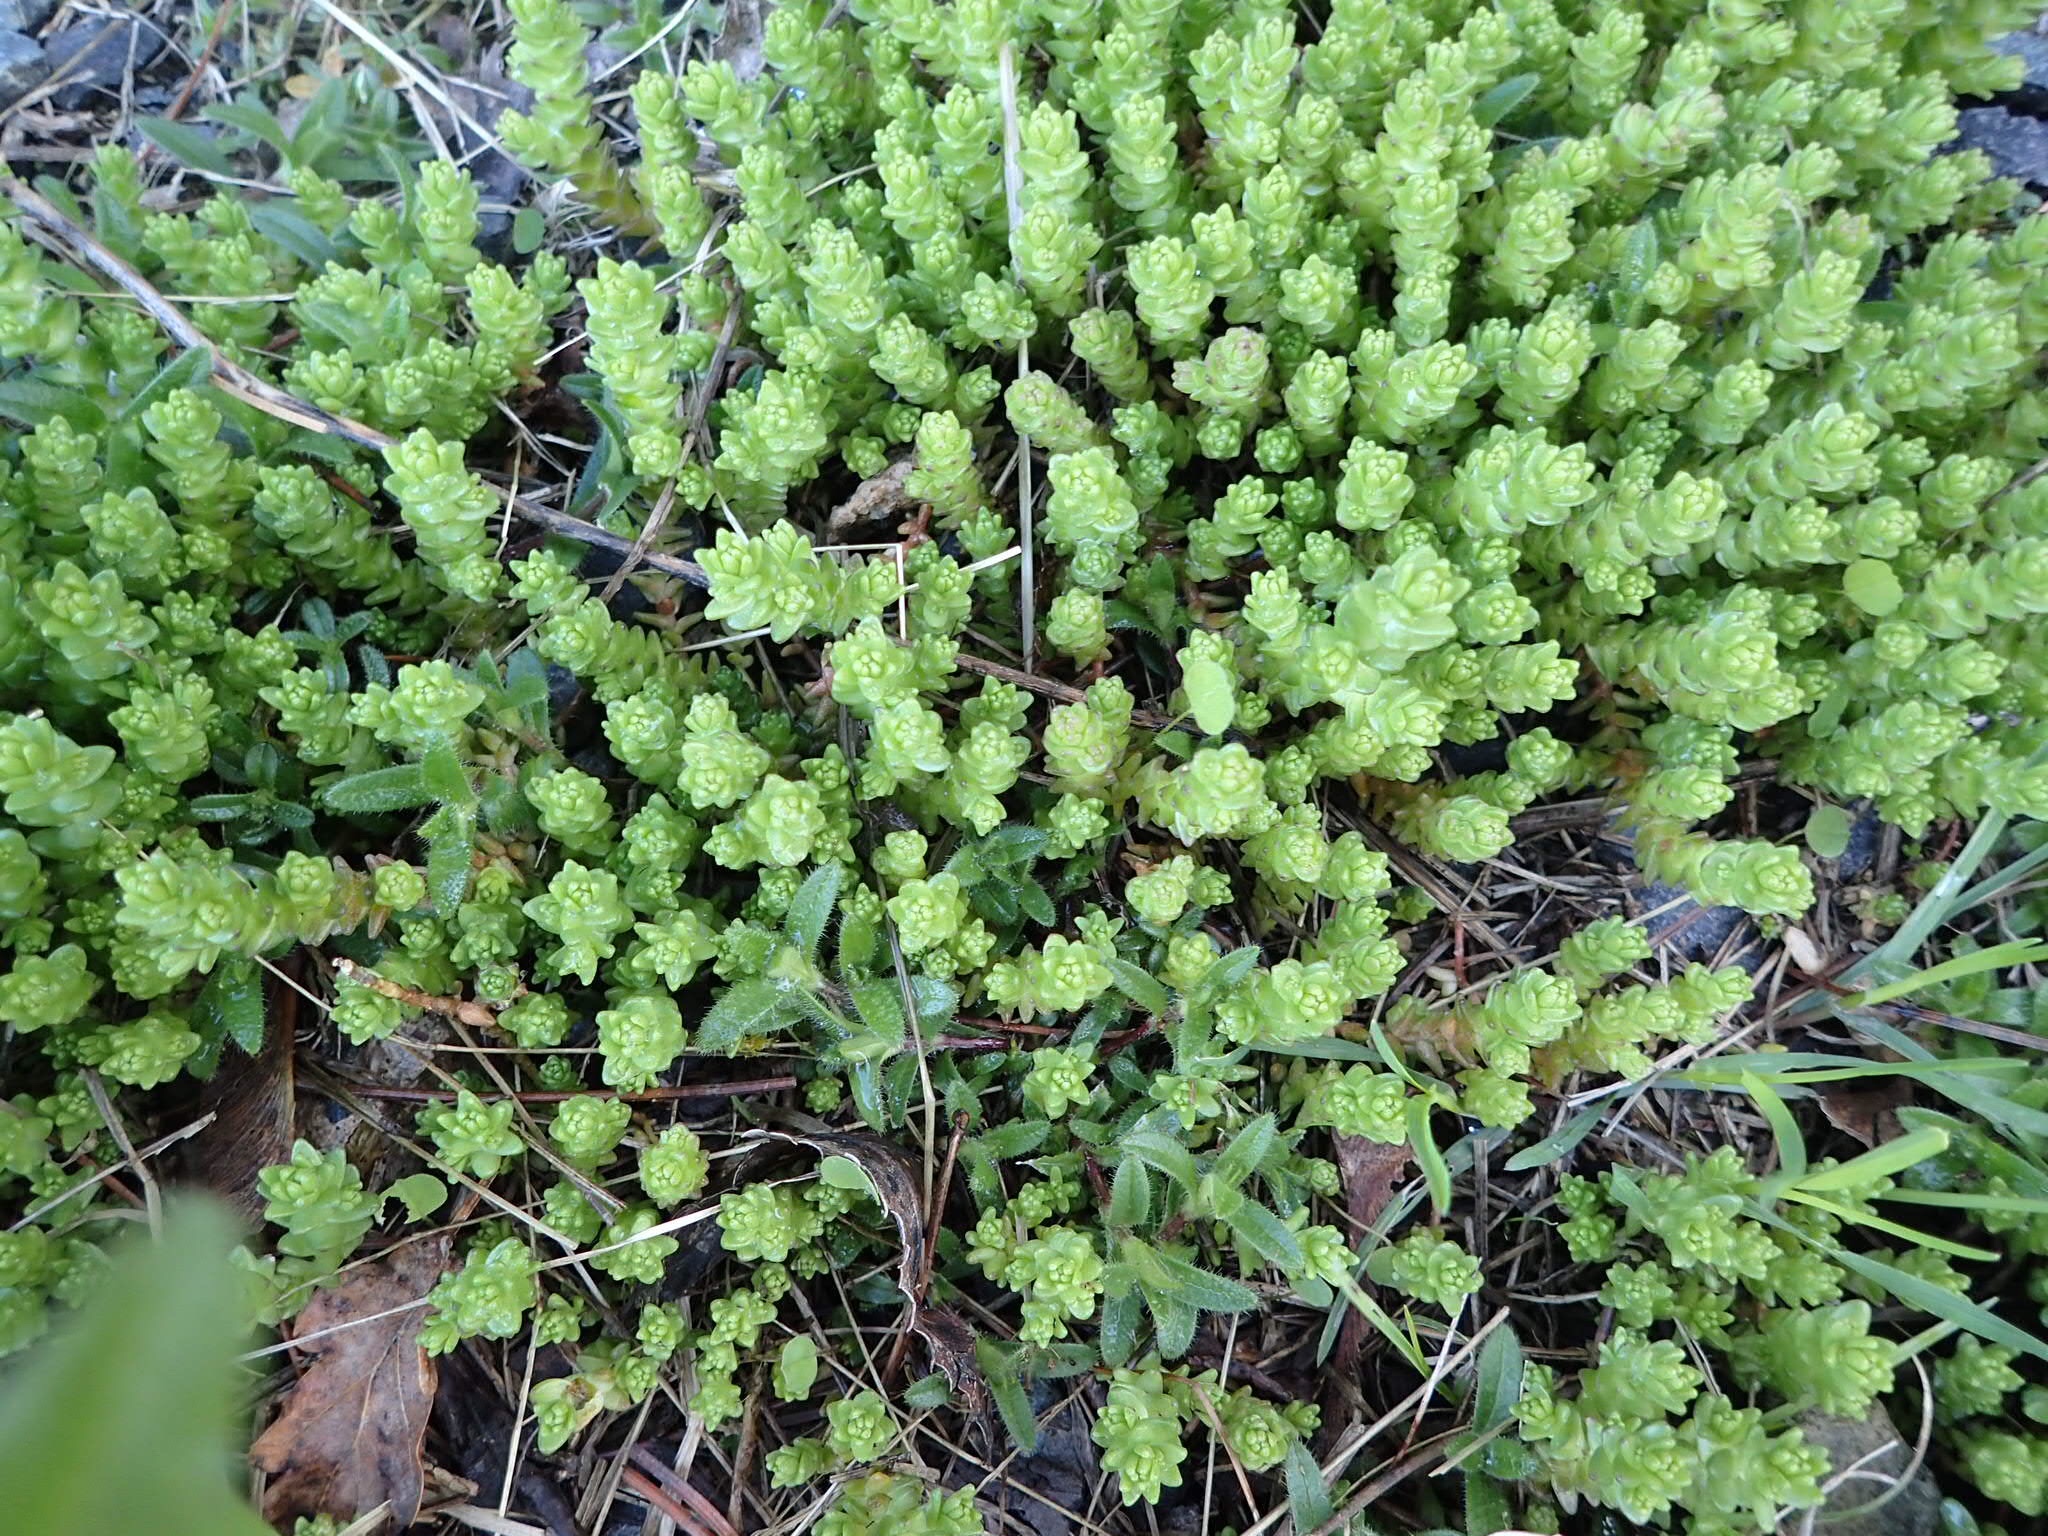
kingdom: Plantae
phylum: Tracheophyta
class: Magnoliopsida
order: Saxifragales
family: Crassulaceae
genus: Sedum
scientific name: Sedum acre
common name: Biting stonecrop
